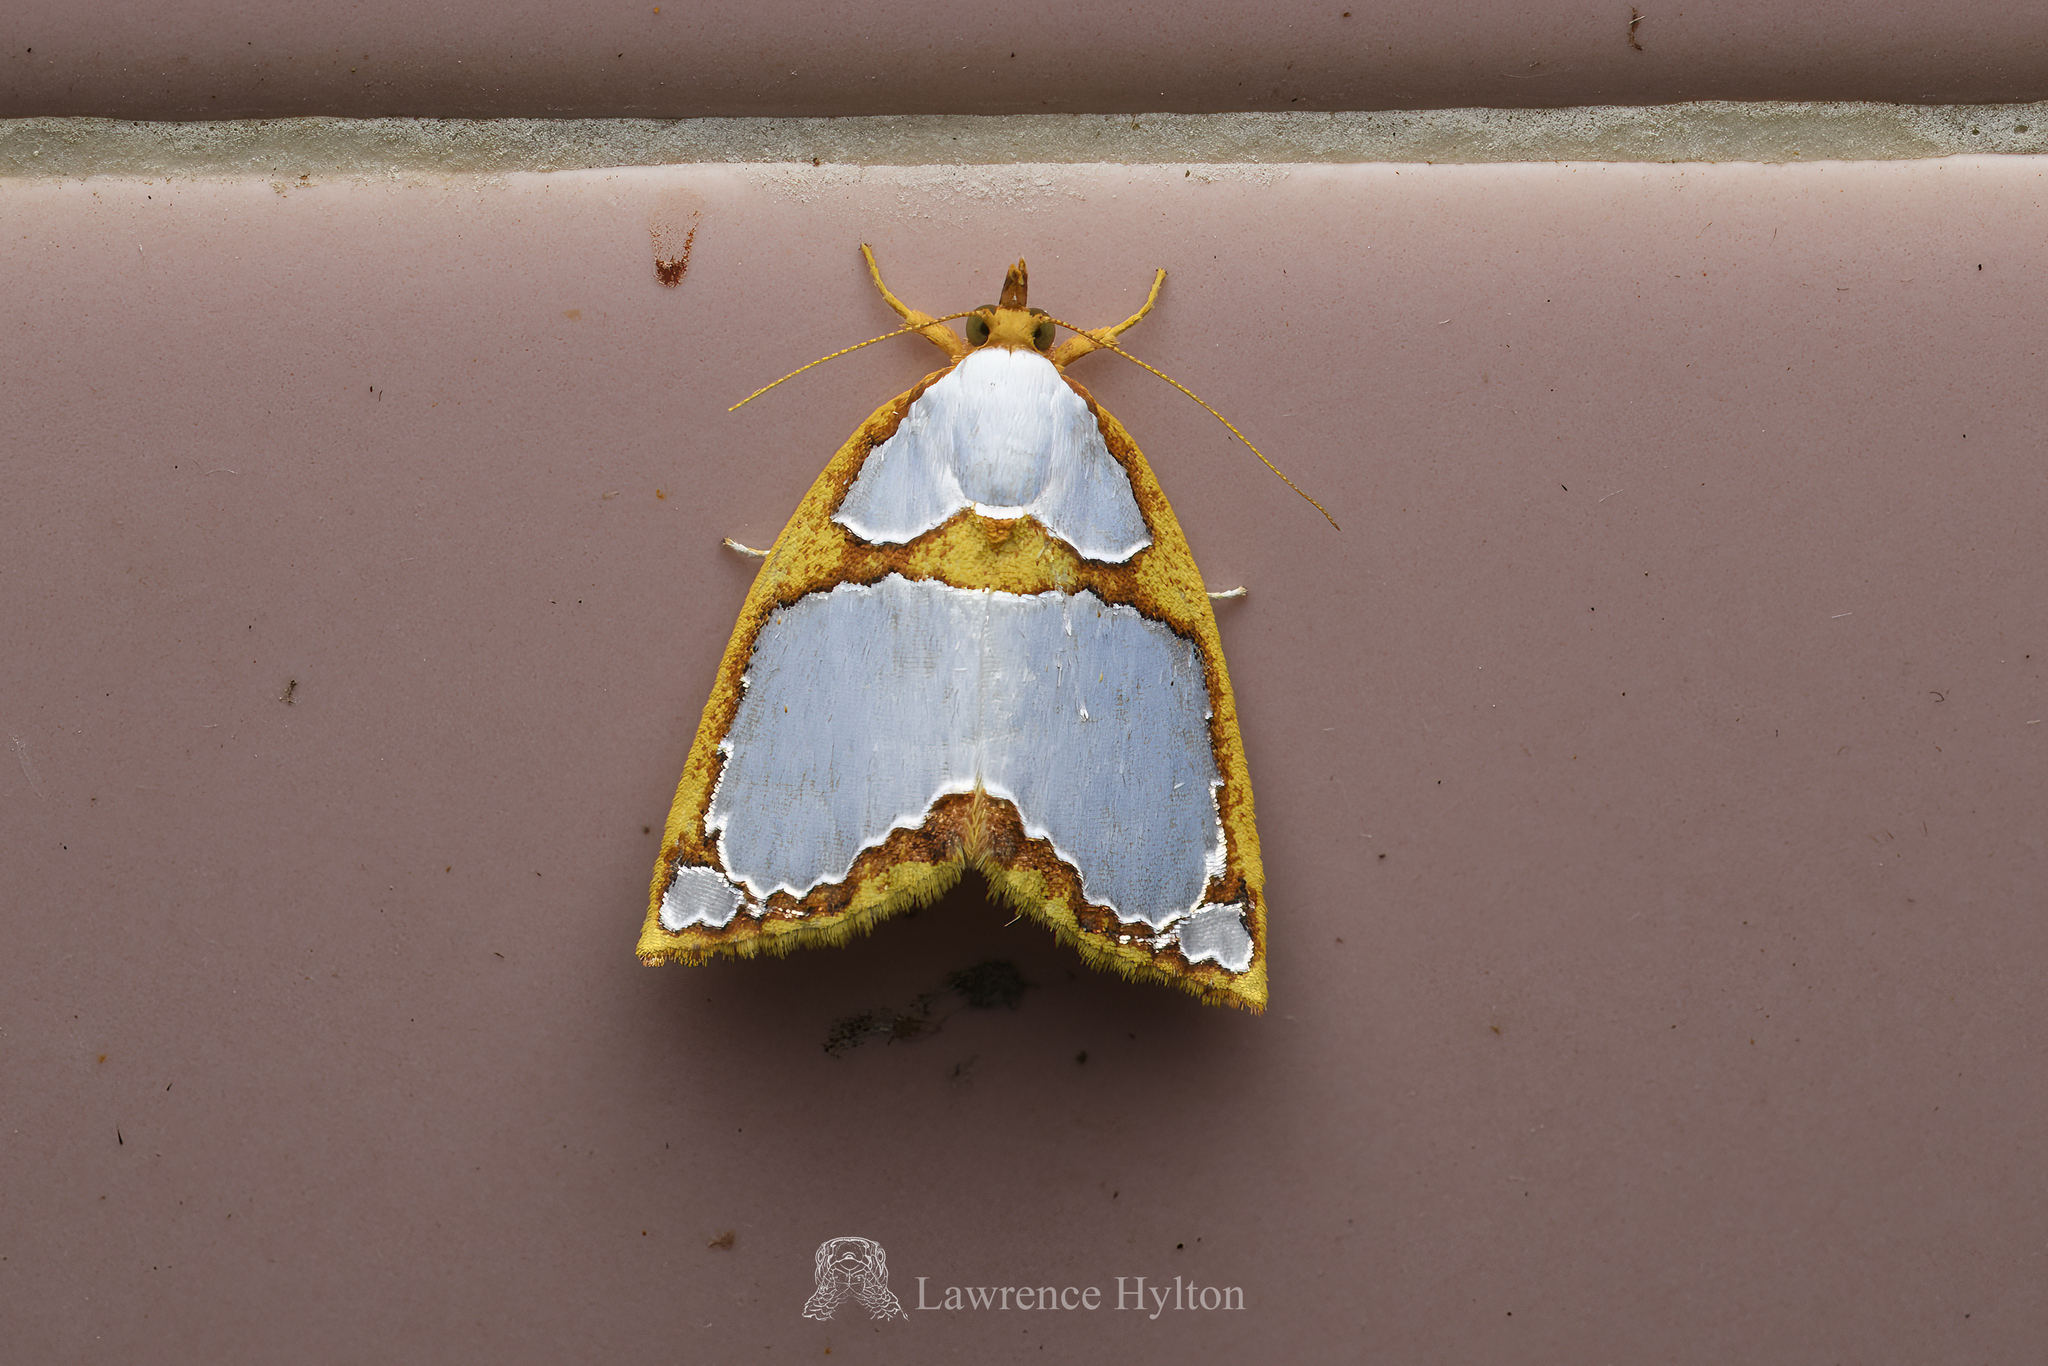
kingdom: Animalia
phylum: Arthropoda
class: Insecta
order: Lepidoptera
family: Nolidae
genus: Titulcia
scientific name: Titulcia confictella
